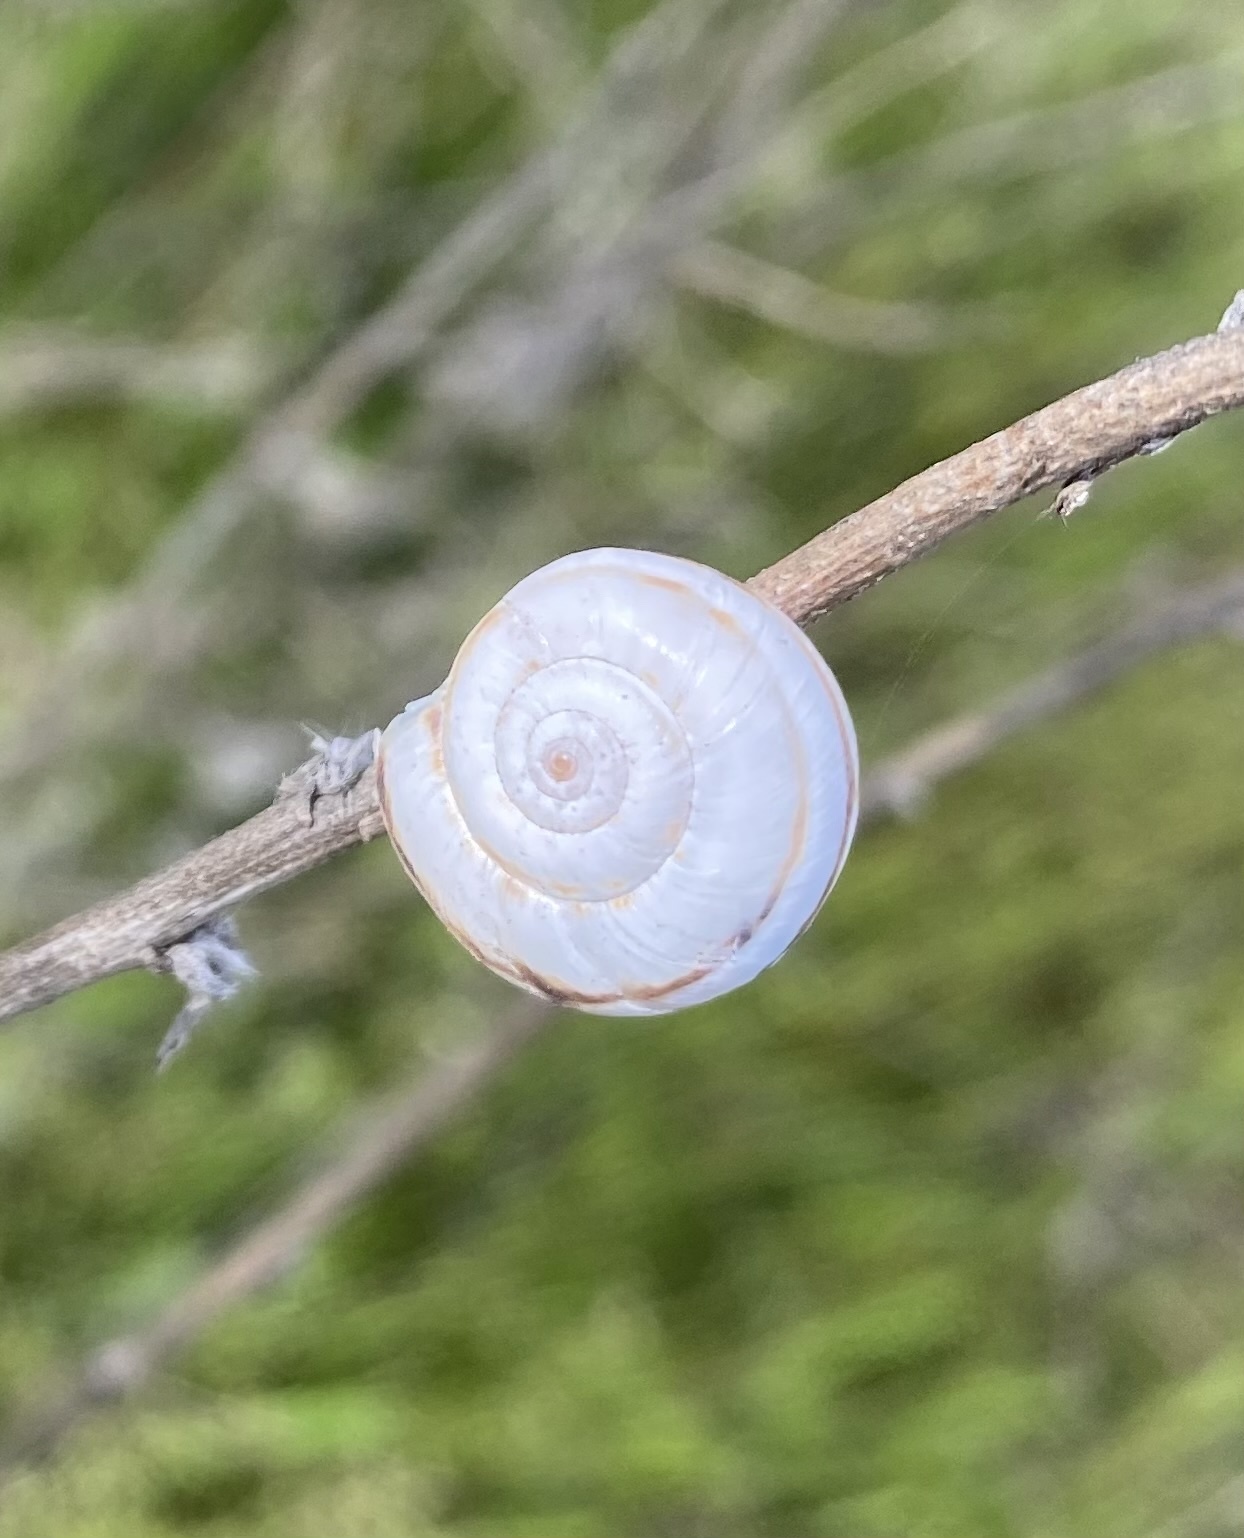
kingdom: Animalia
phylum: Mollusca
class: Gastropoda
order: Stylommatophora
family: Geomitridae
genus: Xeropicta
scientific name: Xeropicta derbentina
